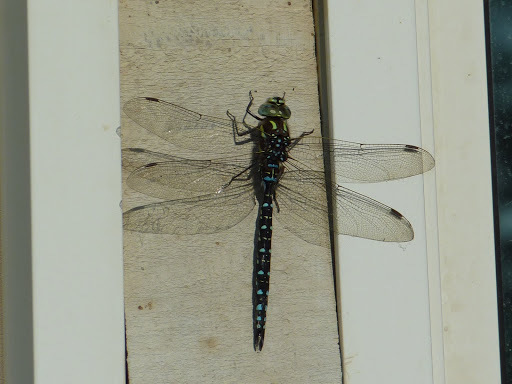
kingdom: Animalia
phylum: Arthropoda
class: Insecta
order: Odonata
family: Aeshnidae
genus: Aeshna
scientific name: Aeshna juncea
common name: Moorland hawker
